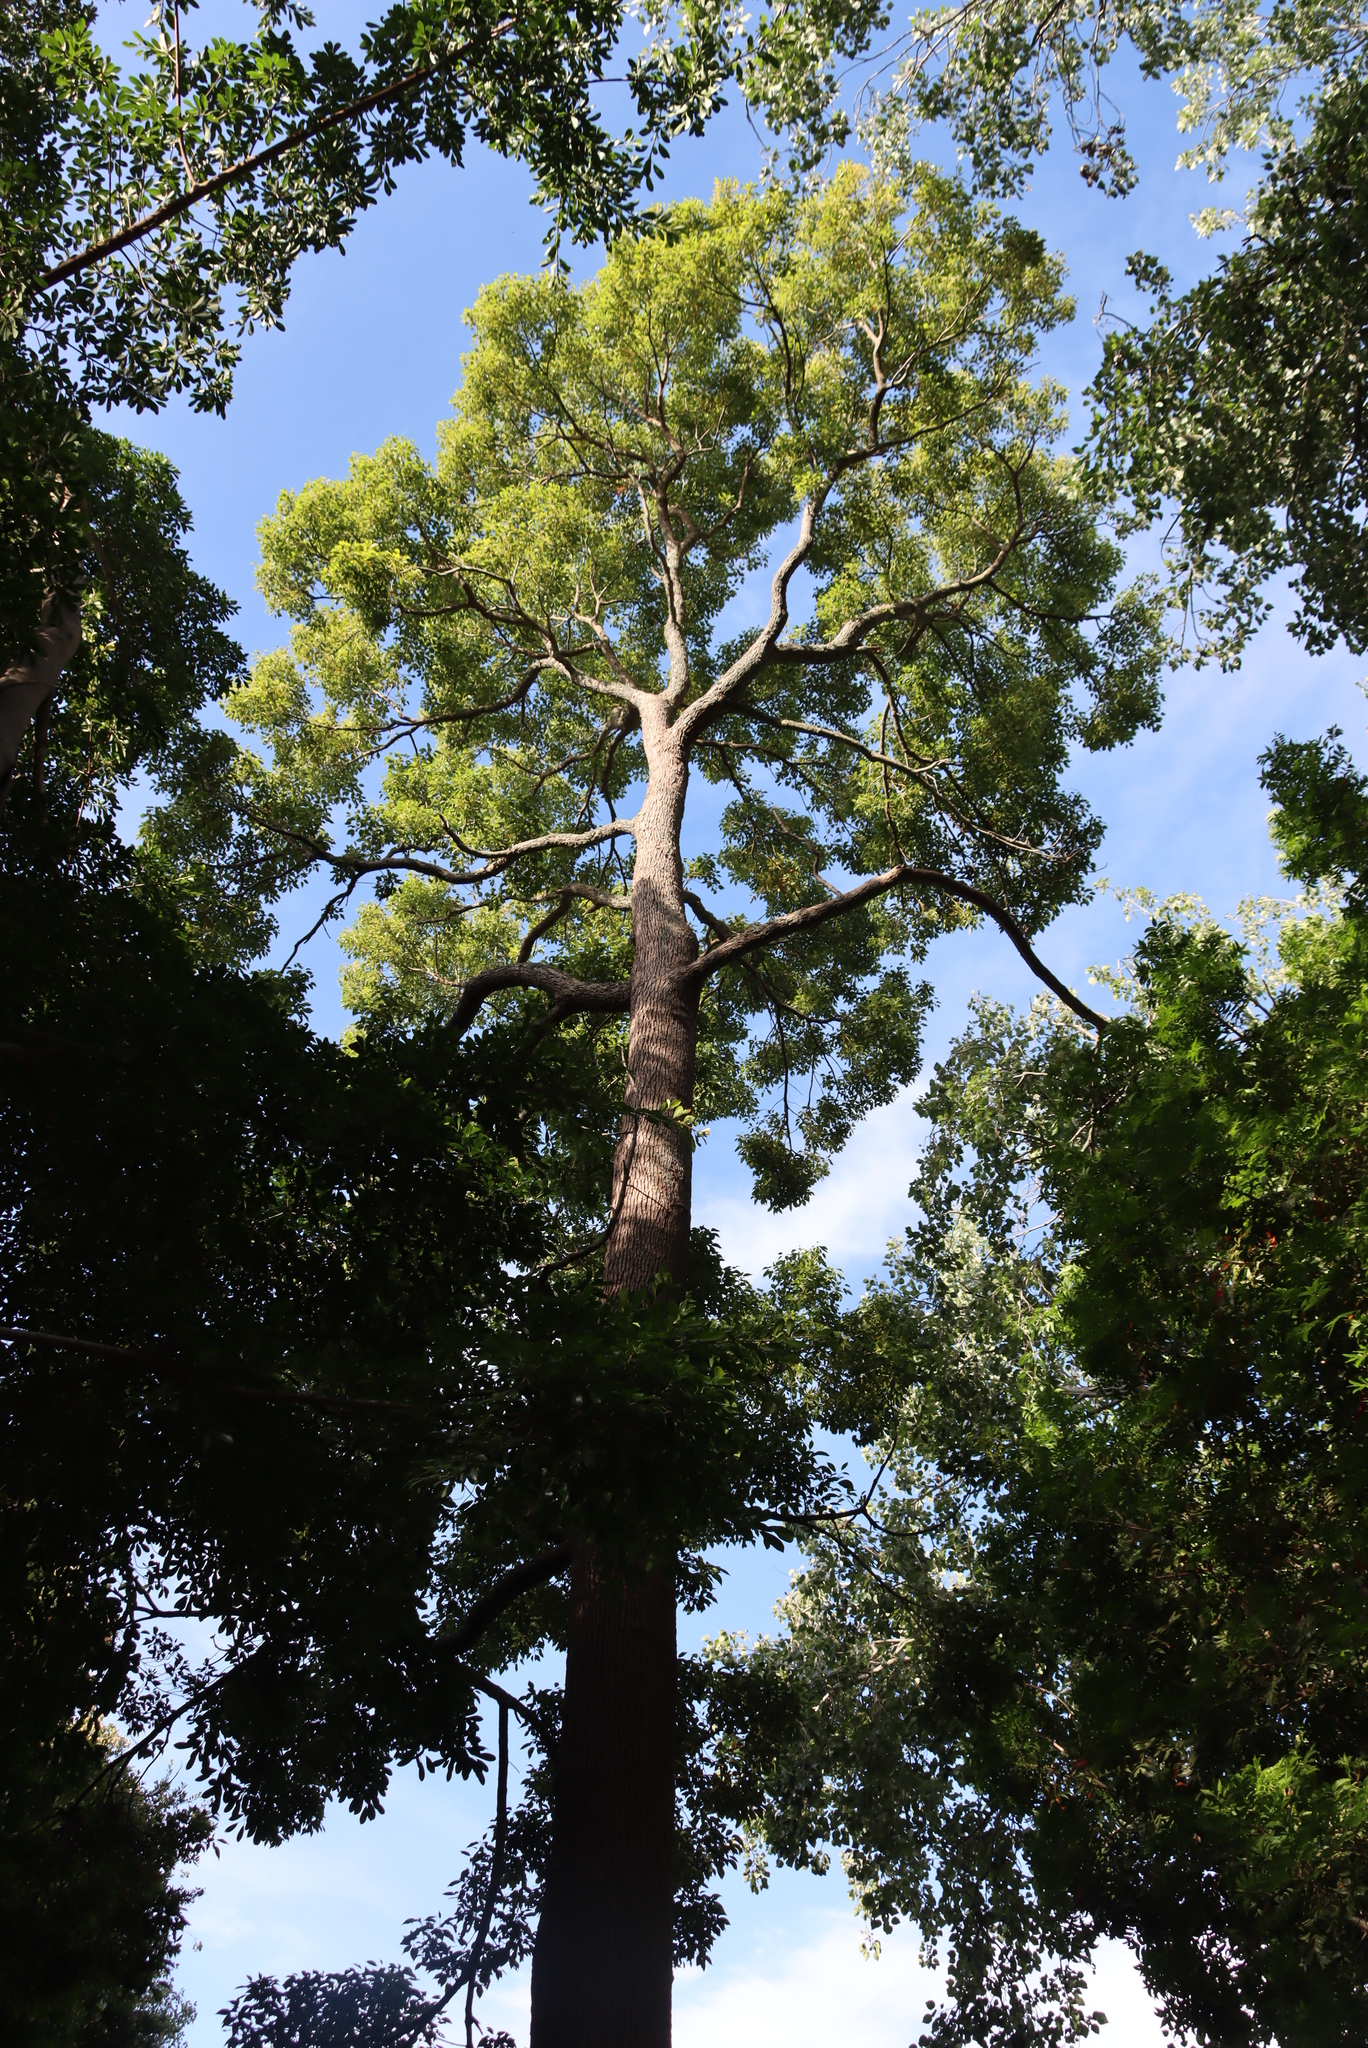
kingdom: Plantae
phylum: Tracheophyta
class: Magnoliopsida
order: Laurales
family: Lauraceae
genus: Cinnamomum
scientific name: Cinnamomum camphora
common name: Camphortree
